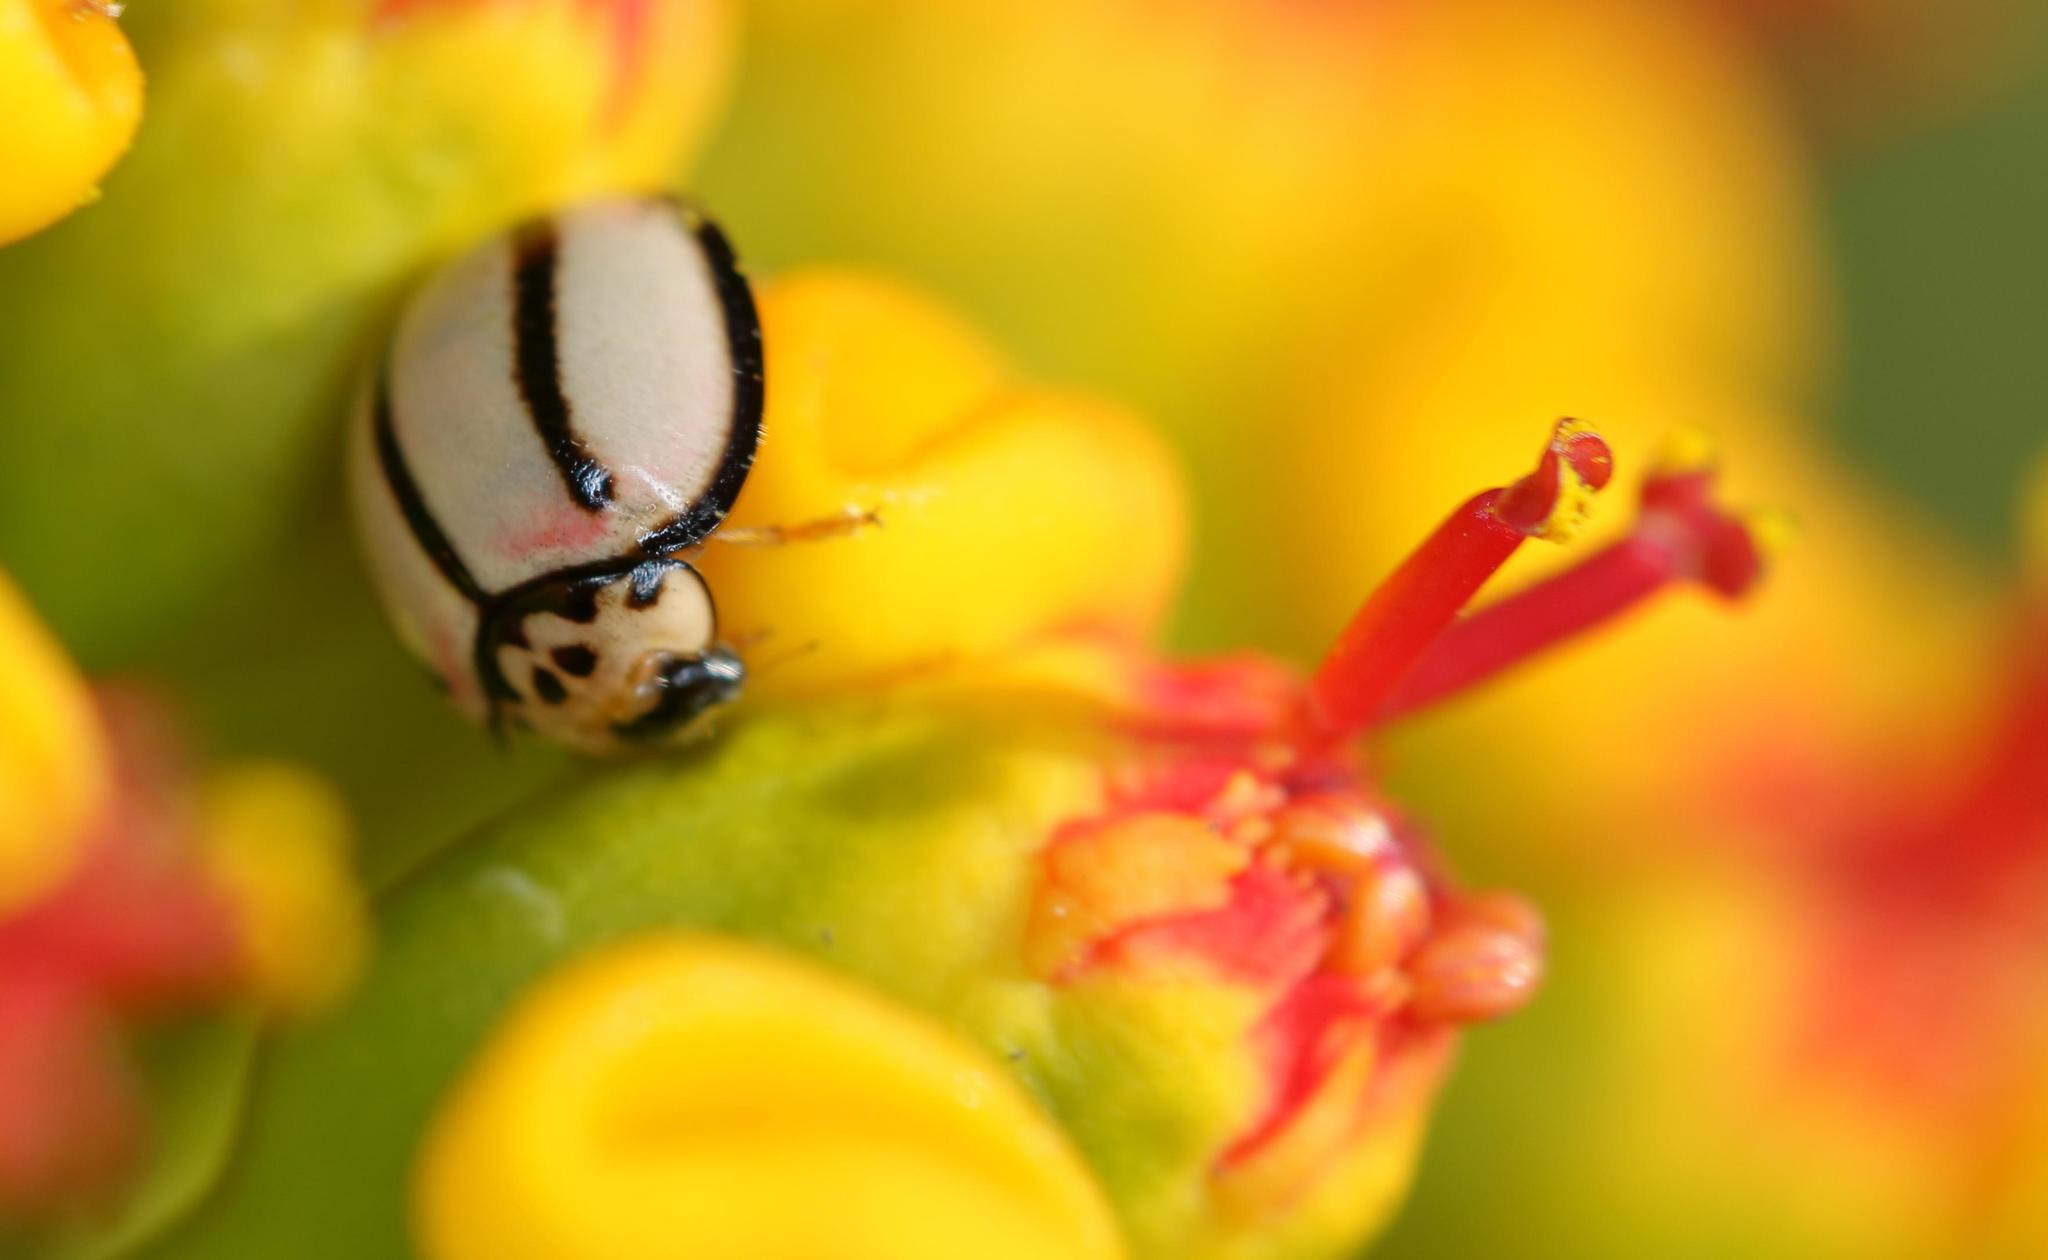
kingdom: Animalia
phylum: Arthropoda
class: Insecta
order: Coleoptera
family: Coccinellidae
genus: Declivitata
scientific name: Declivitata
